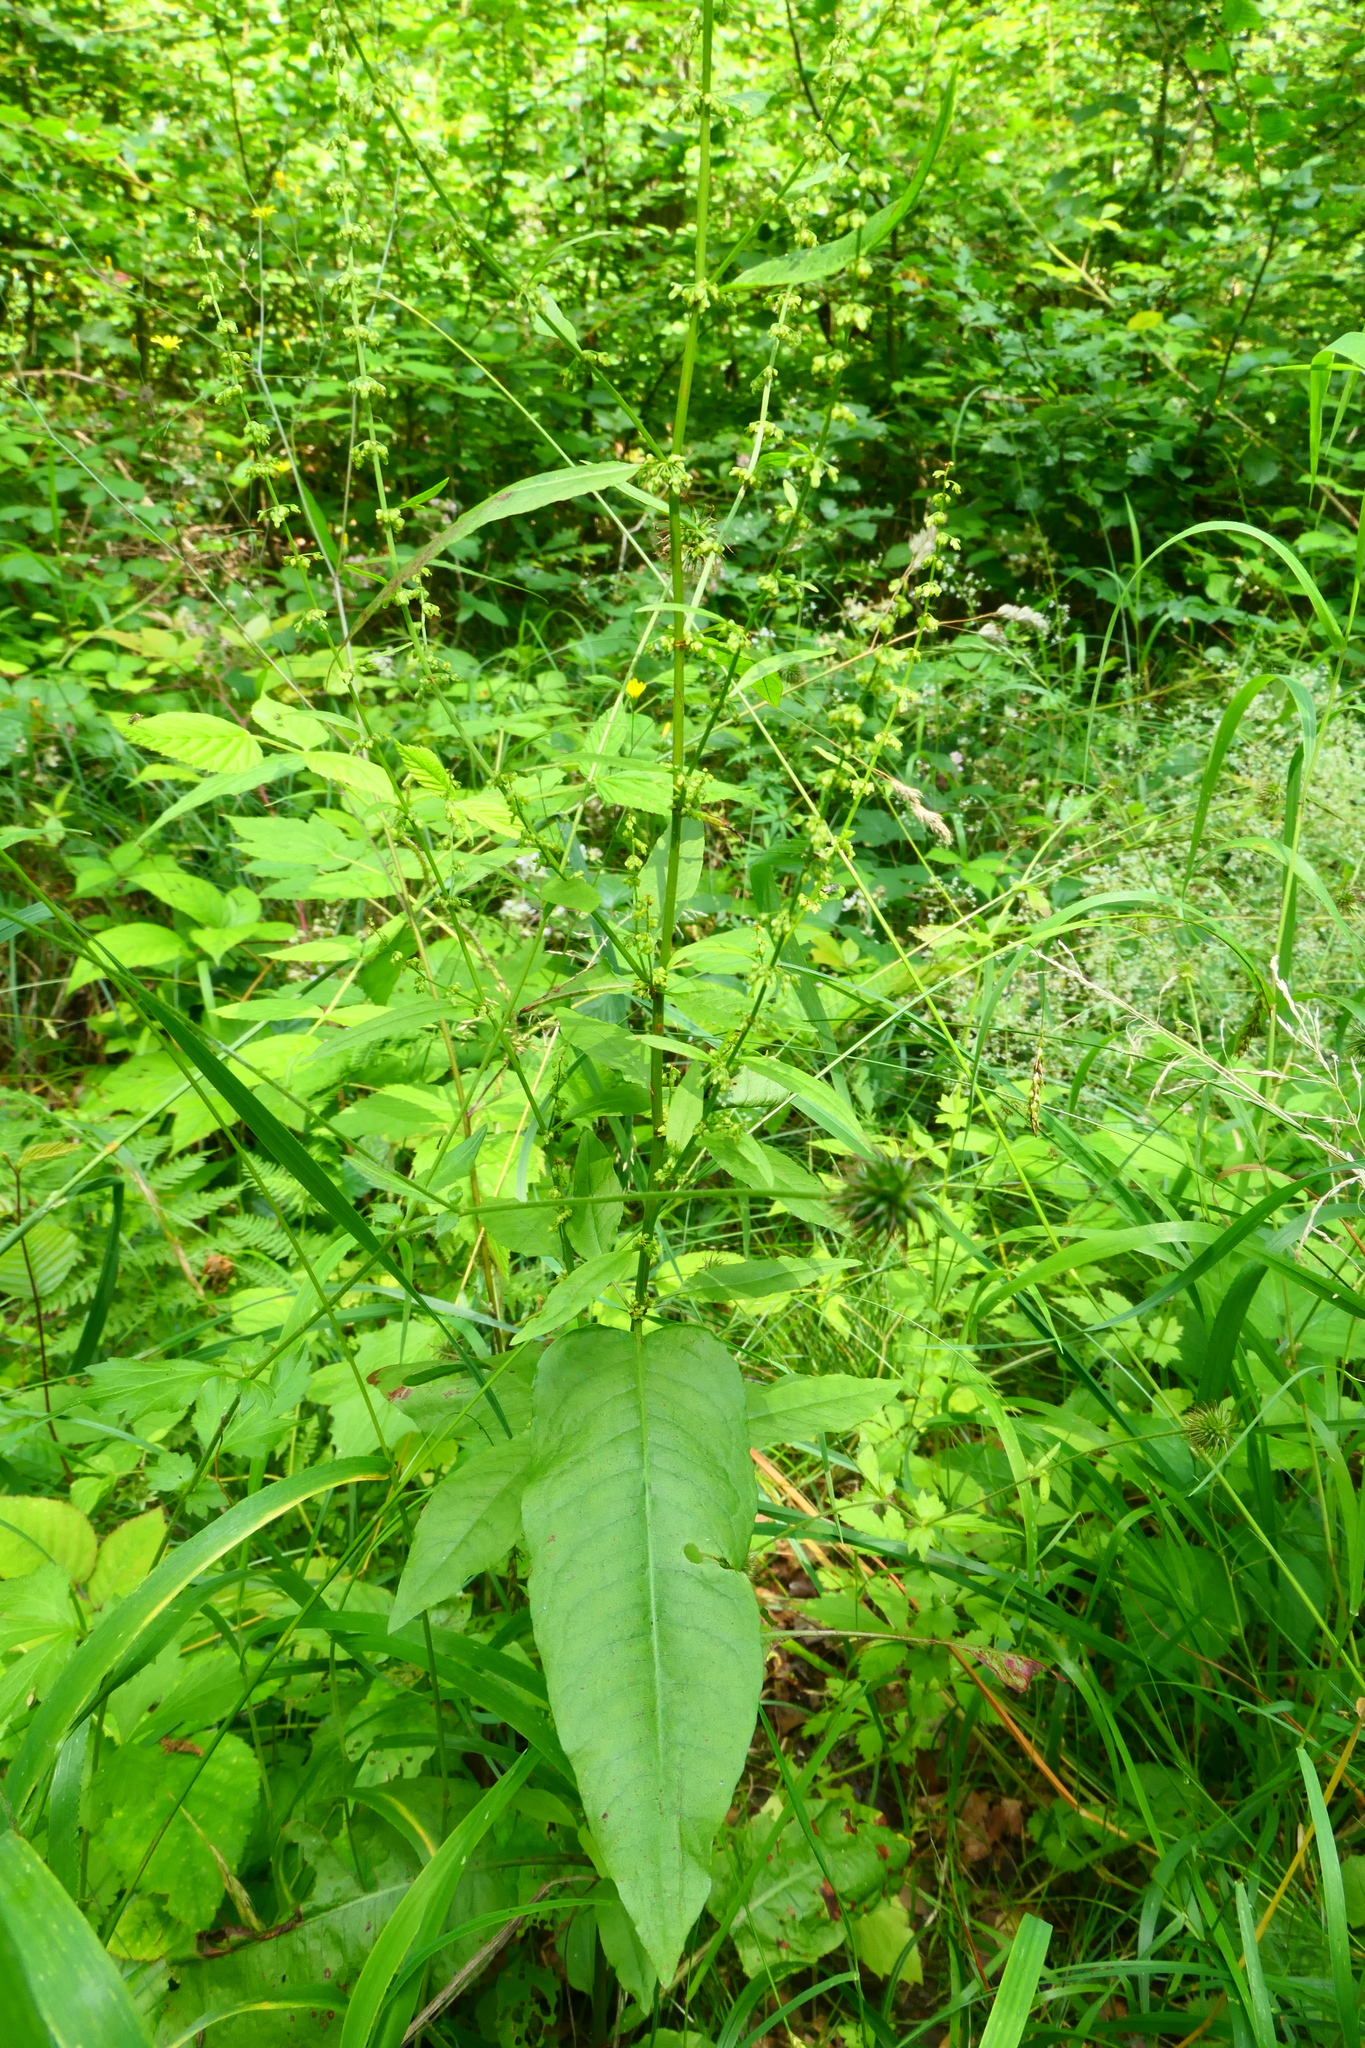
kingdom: Plantae
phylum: Tracheophyta
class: Magnoliopsida
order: Caryophyllales
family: Polygonaceae
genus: Rumex
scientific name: Rumex sanguineus
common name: Wood dock
